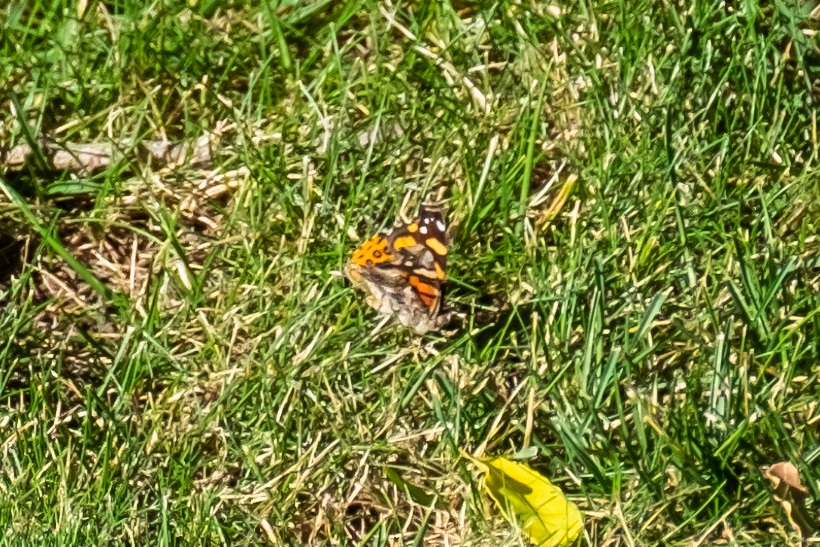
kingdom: Animalia
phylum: Arthropoda
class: Insecta
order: Lepidoptera
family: Nymphalidae
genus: Vanessa
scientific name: Vanessa annabella
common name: West coast lady
